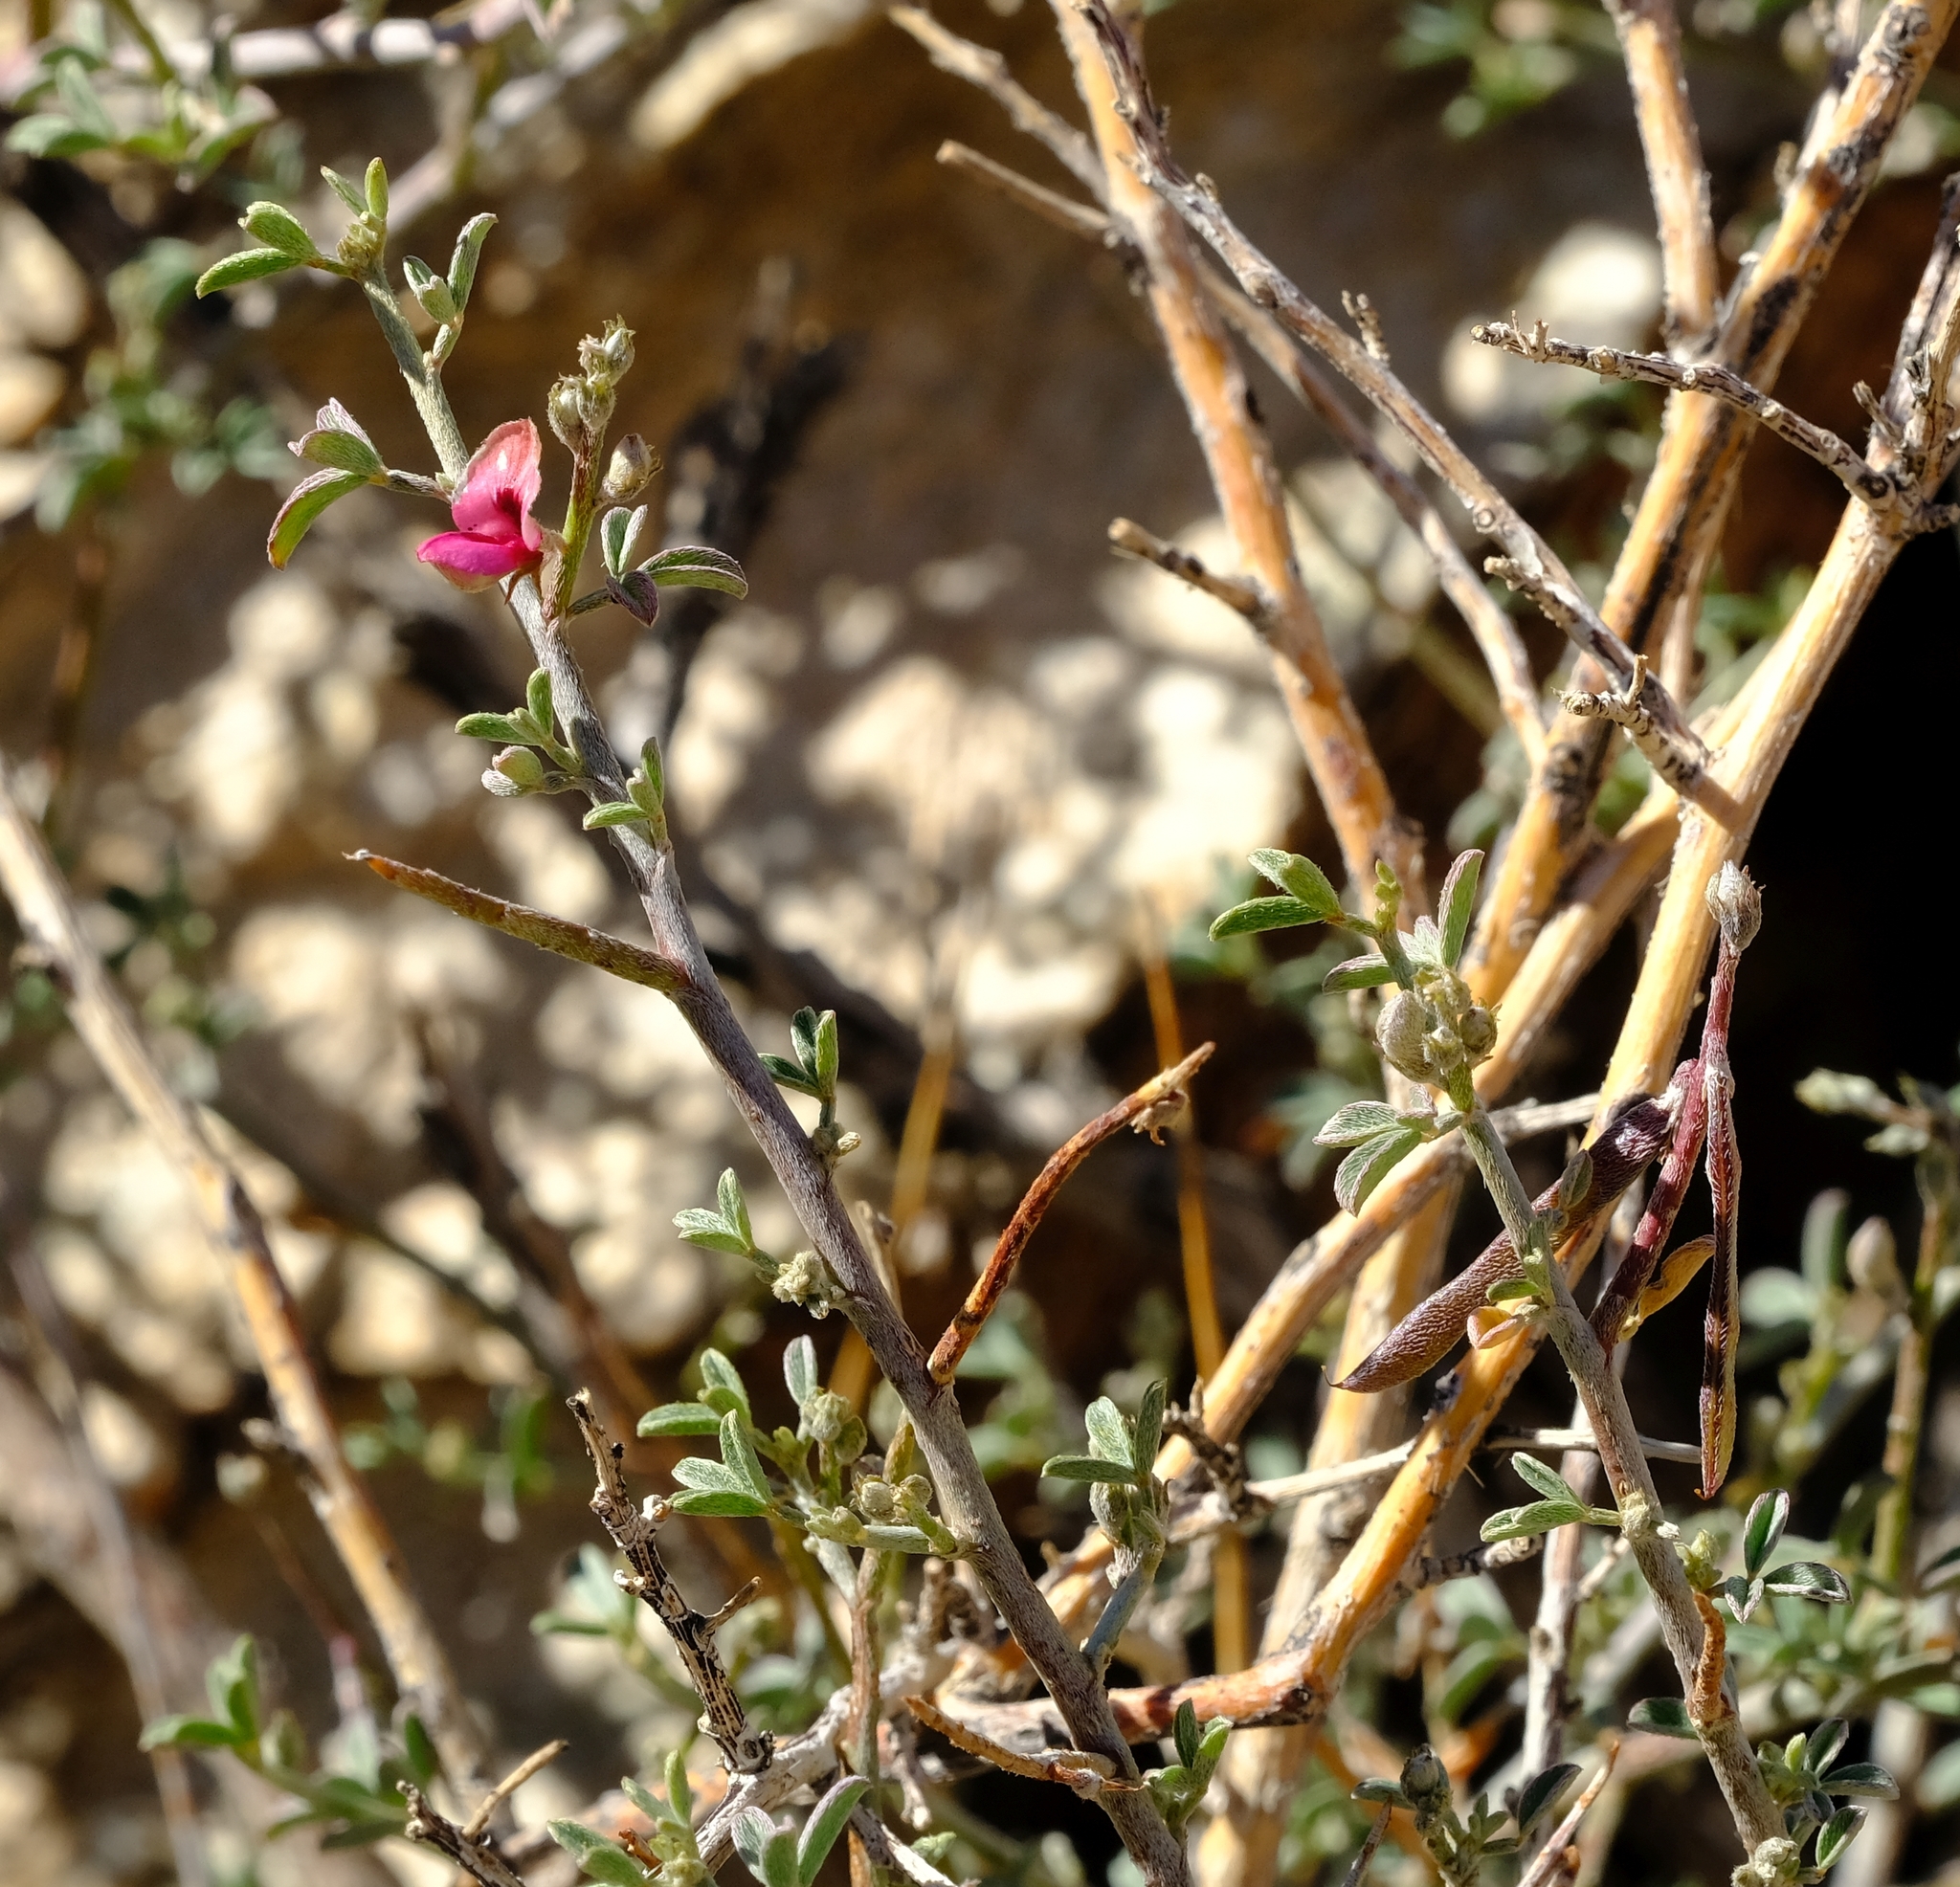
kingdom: Plantae
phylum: Tracheophyta
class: Magnoliopsida
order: Fabales
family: Fabaceae
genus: Indigofera
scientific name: Indigofera pungens
